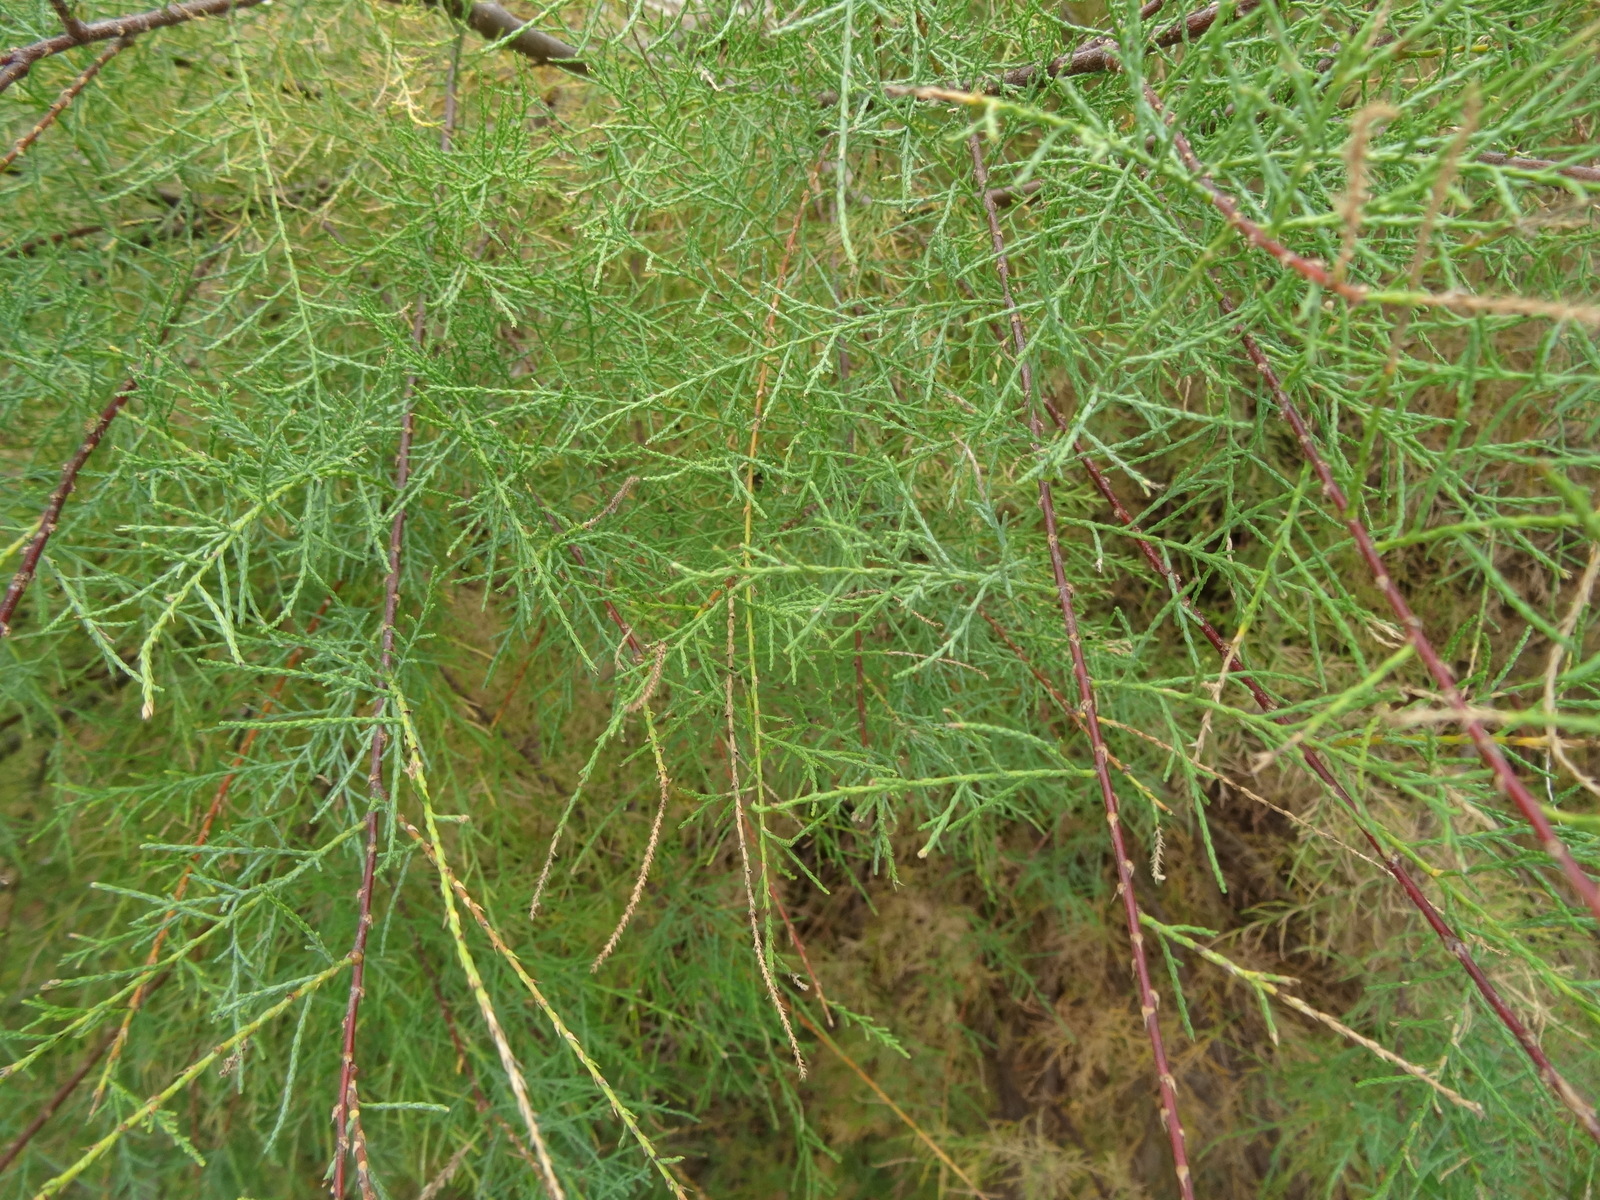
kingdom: Plantae
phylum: Tracheophyta
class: Magnoliopsida
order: Caryophyllales
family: Tamaricaceae
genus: Tamarix
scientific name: Tamarix gallica
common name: Tamarisk
